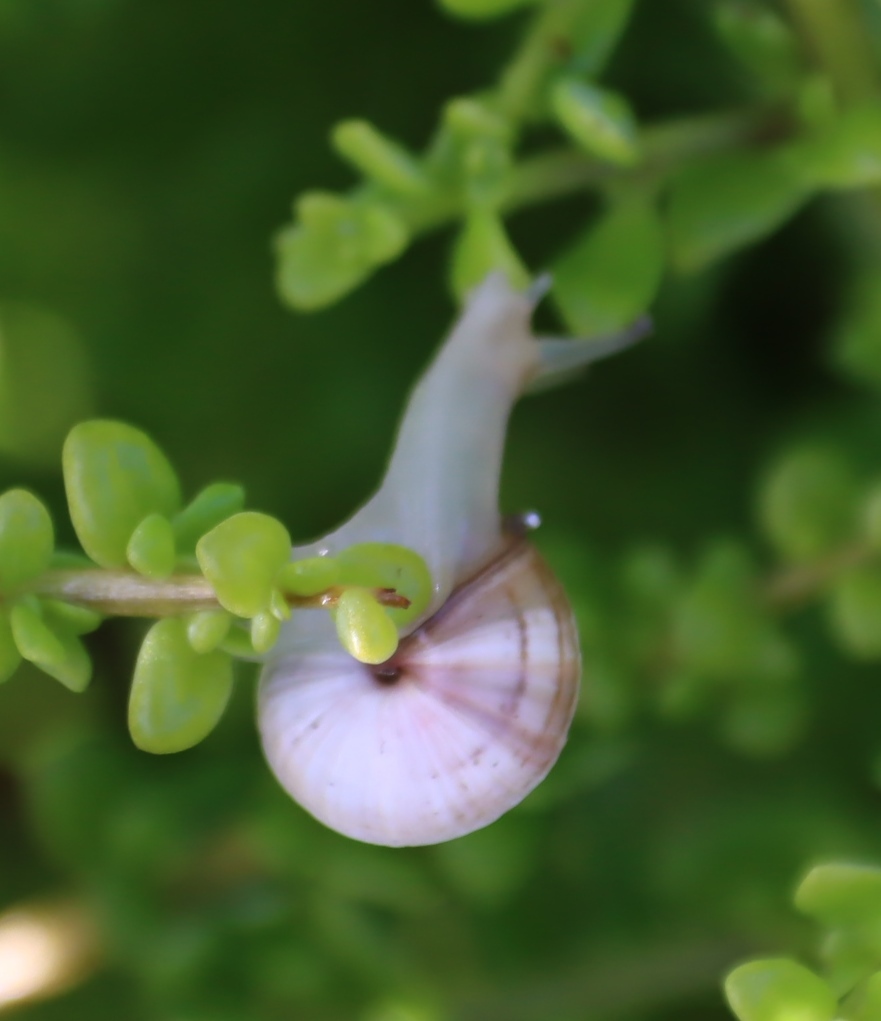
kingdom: Animalia
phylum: Mollusca
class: Gastropoda
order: Stylommatophora
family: Helicidae
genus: Theba
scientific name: Theba pisana
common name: White snail
